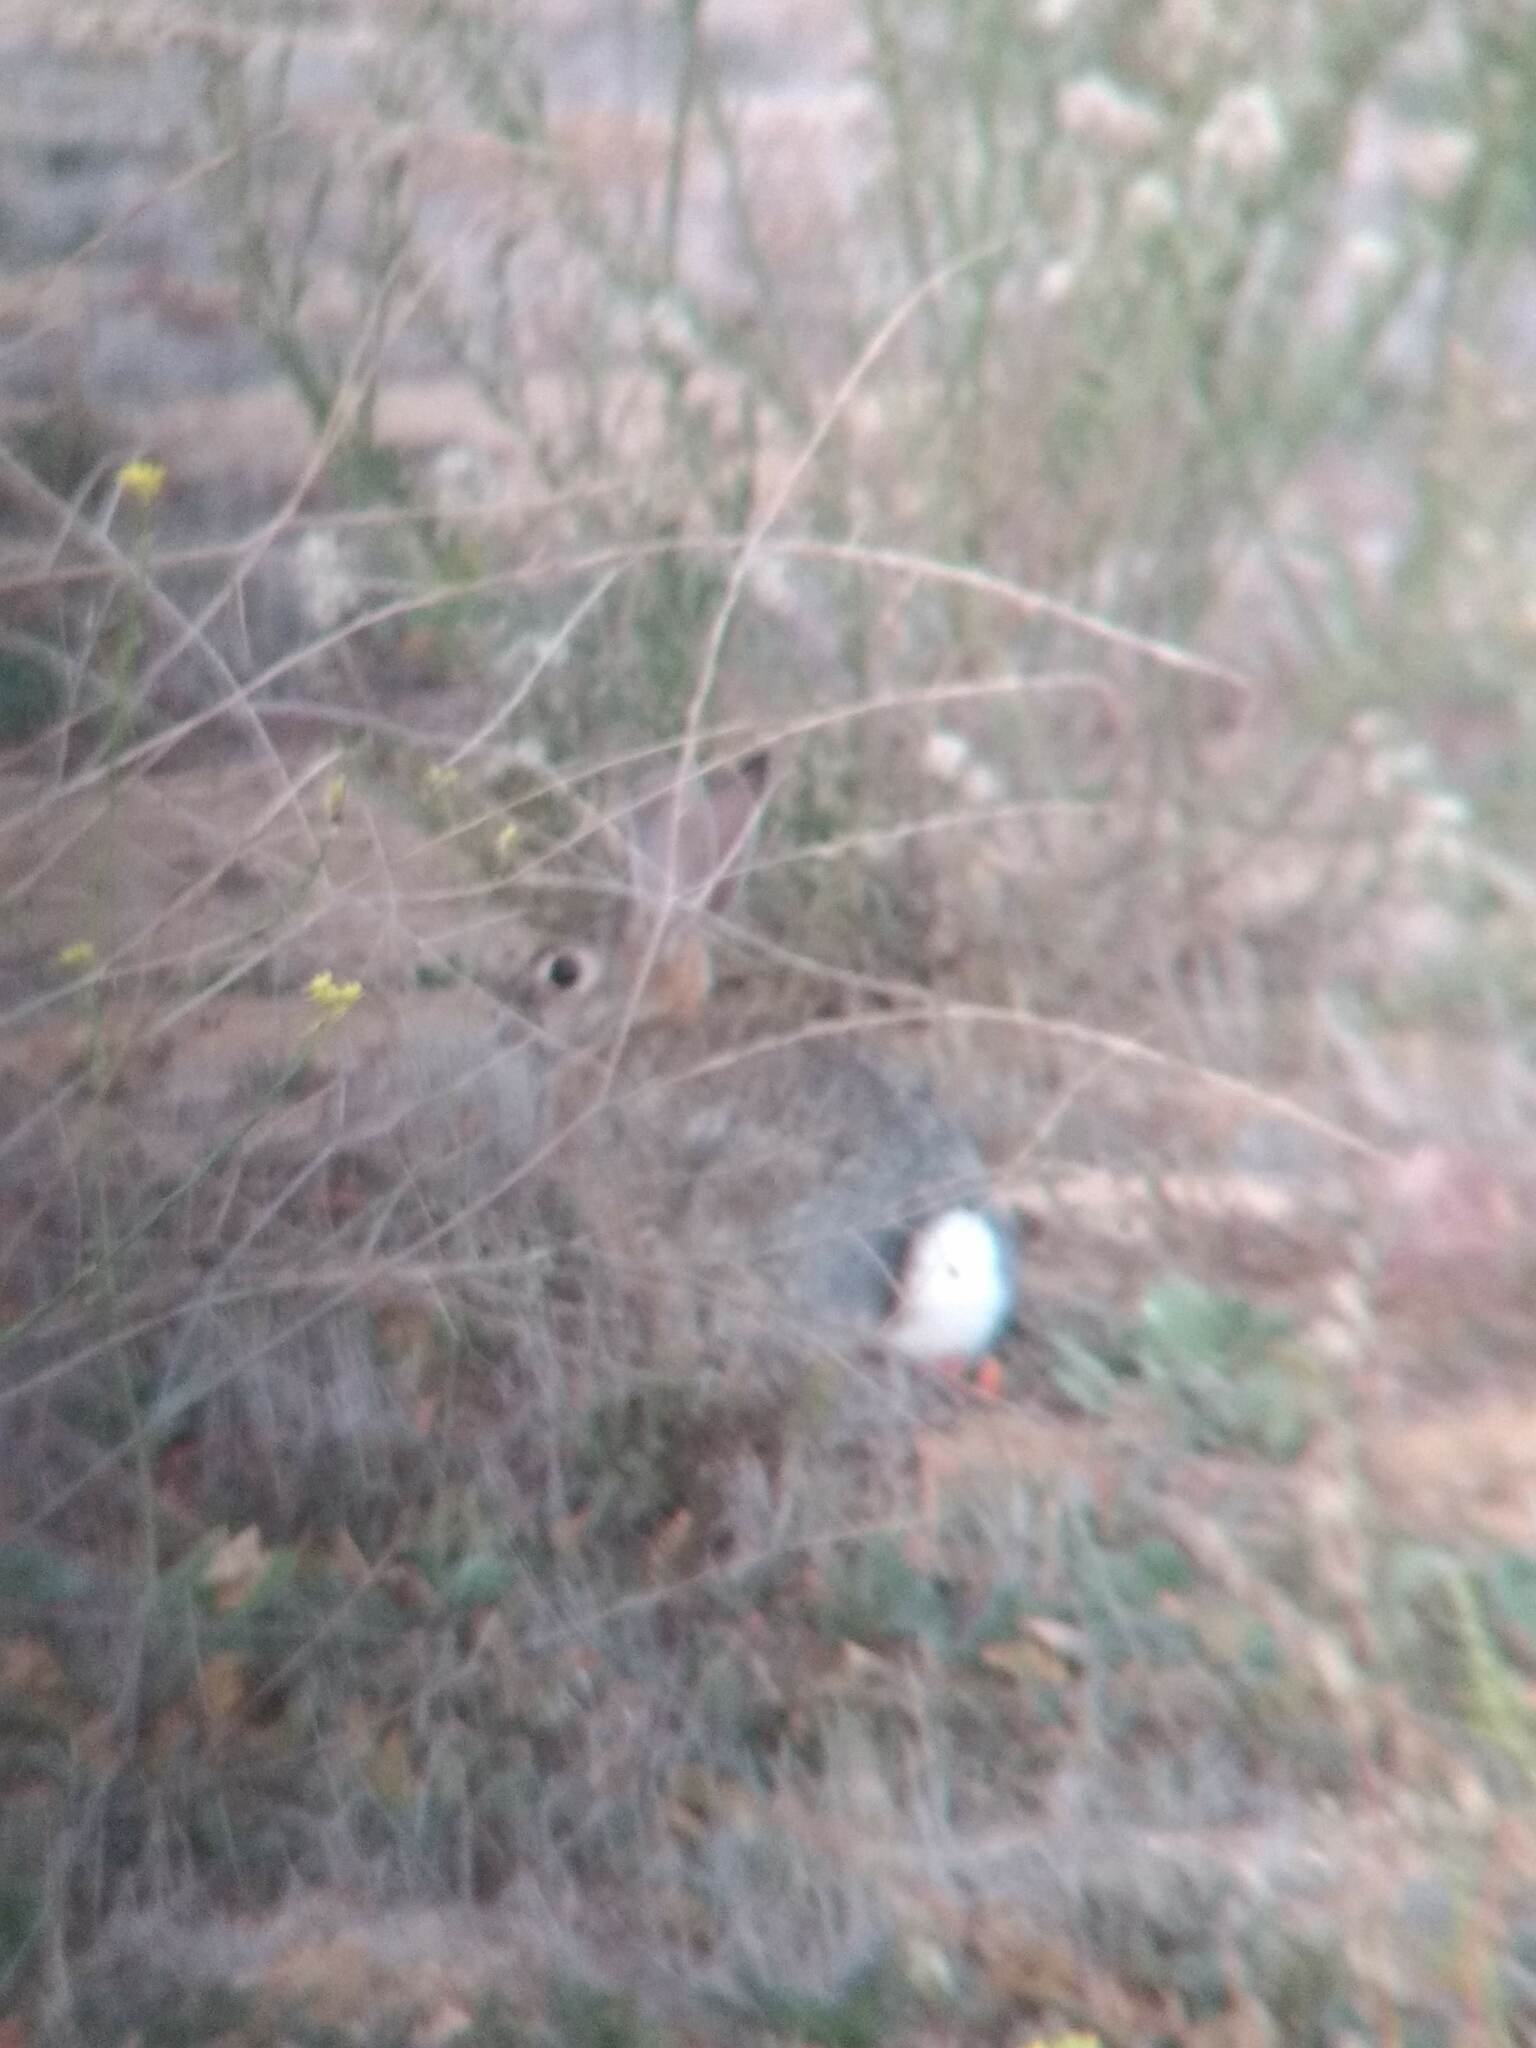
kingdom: Animalia
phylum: Chordata
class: Mammalia
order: Lagomorpha
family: Leporidae
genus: Sylvilagus
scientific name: Sylvilagus audubonii
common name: Desert cottontail
